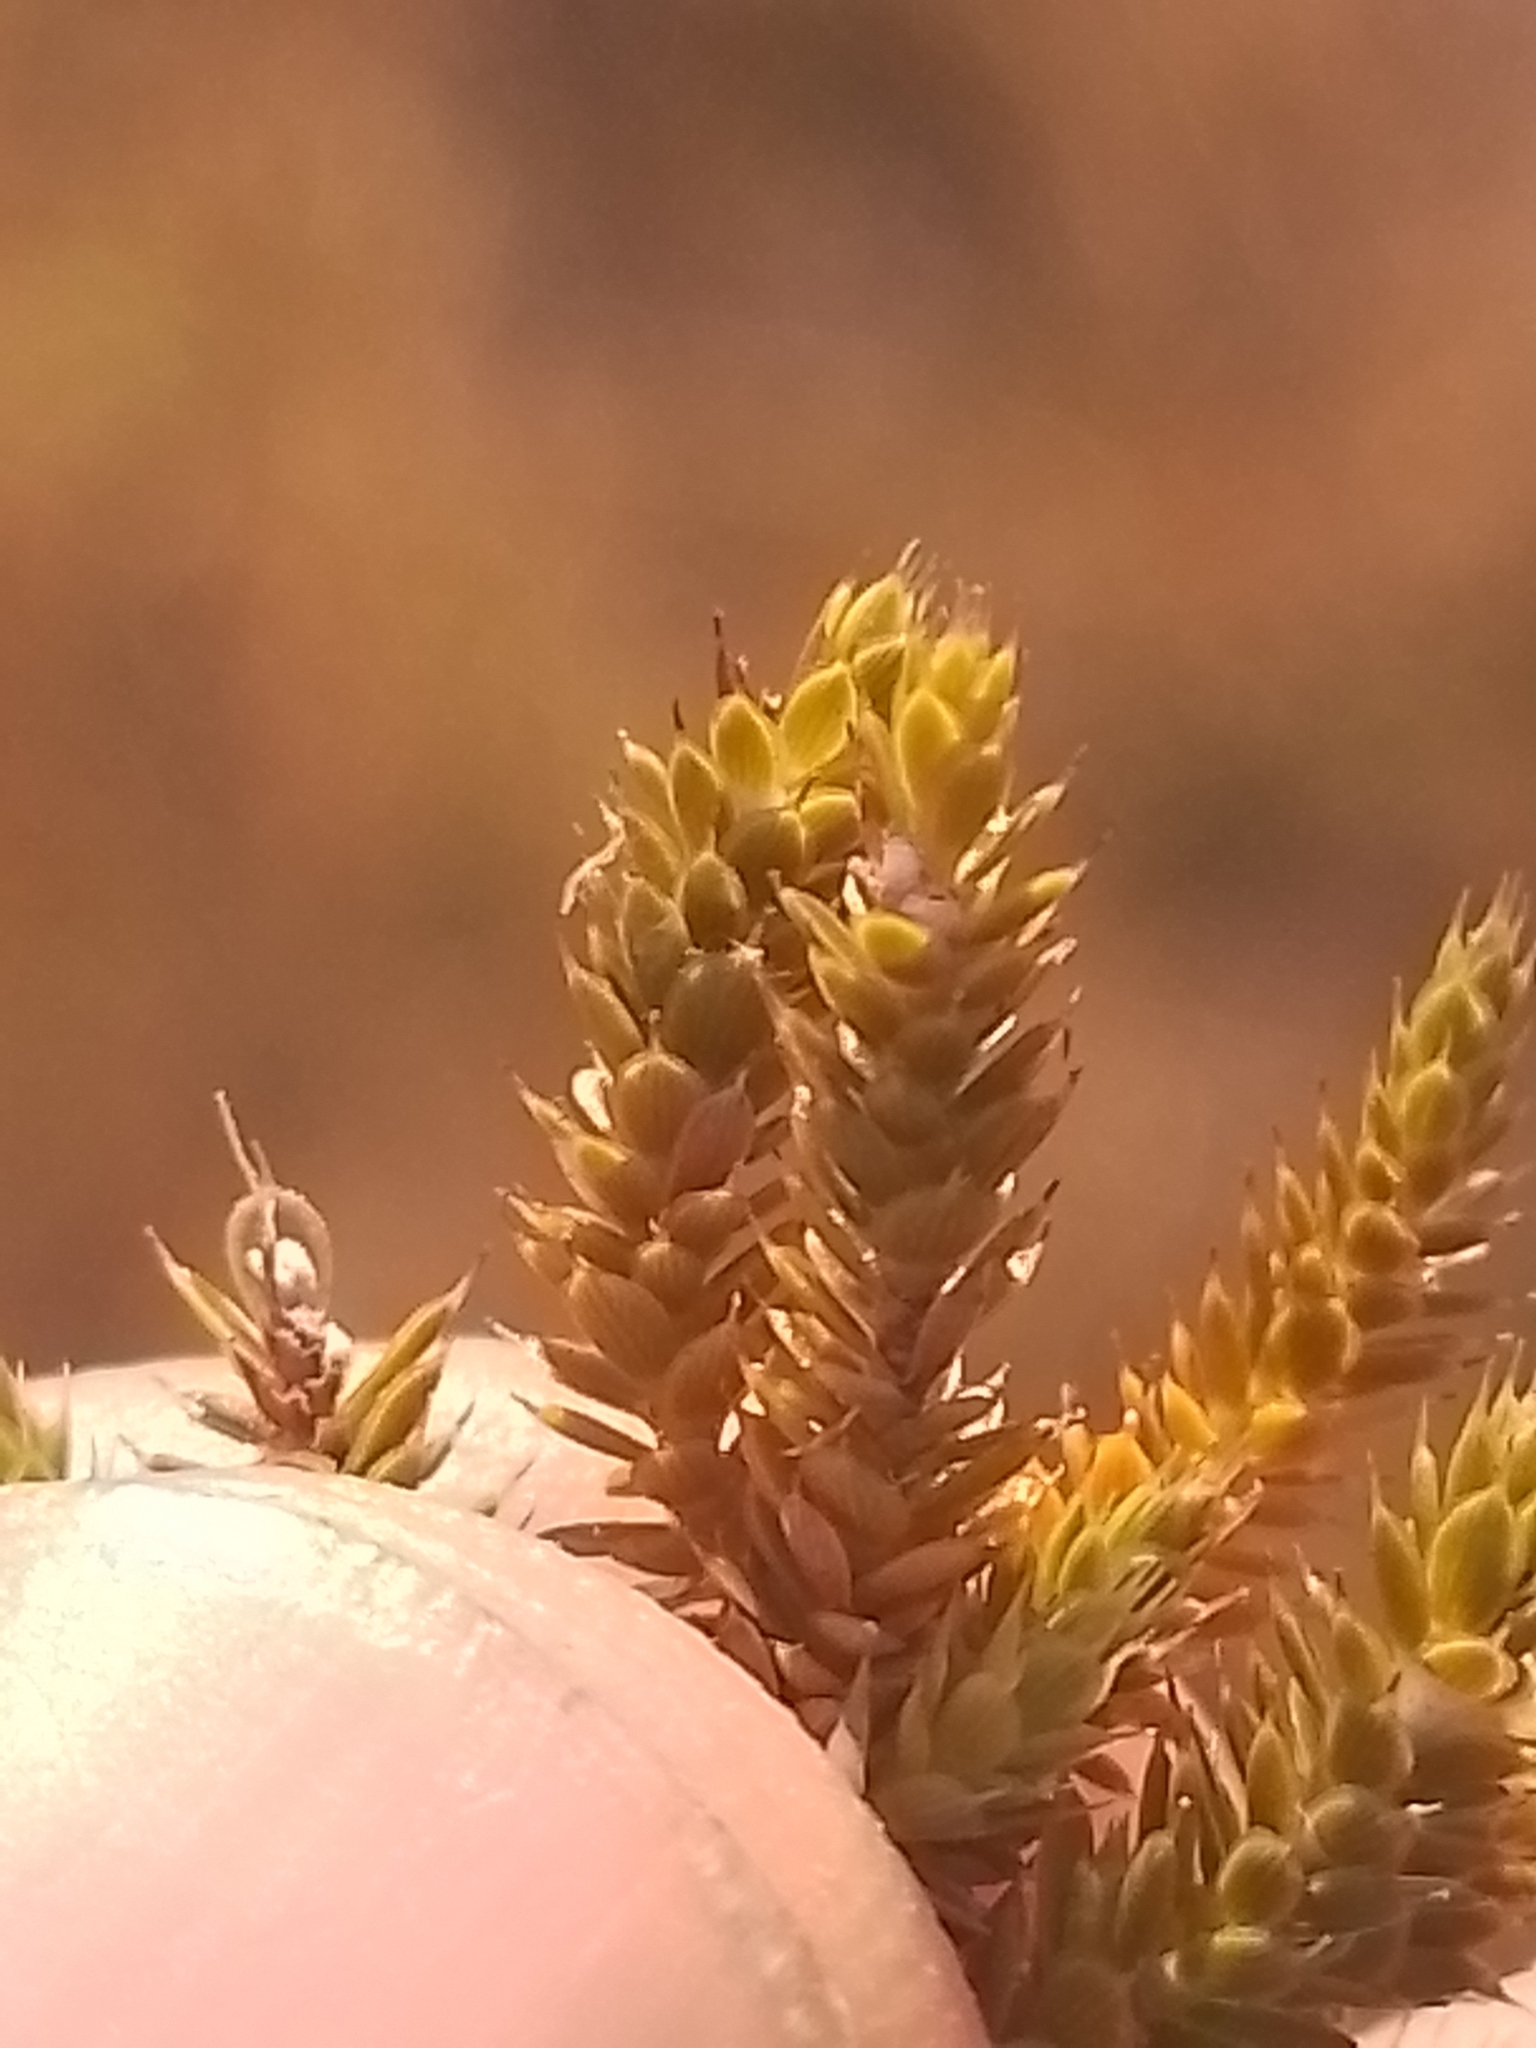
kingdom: Plantae
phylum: Tracheophyta
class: Magnoliopsida
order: Ericales
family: Ericaceae
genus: Styphelia
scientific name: Styphelia nana
